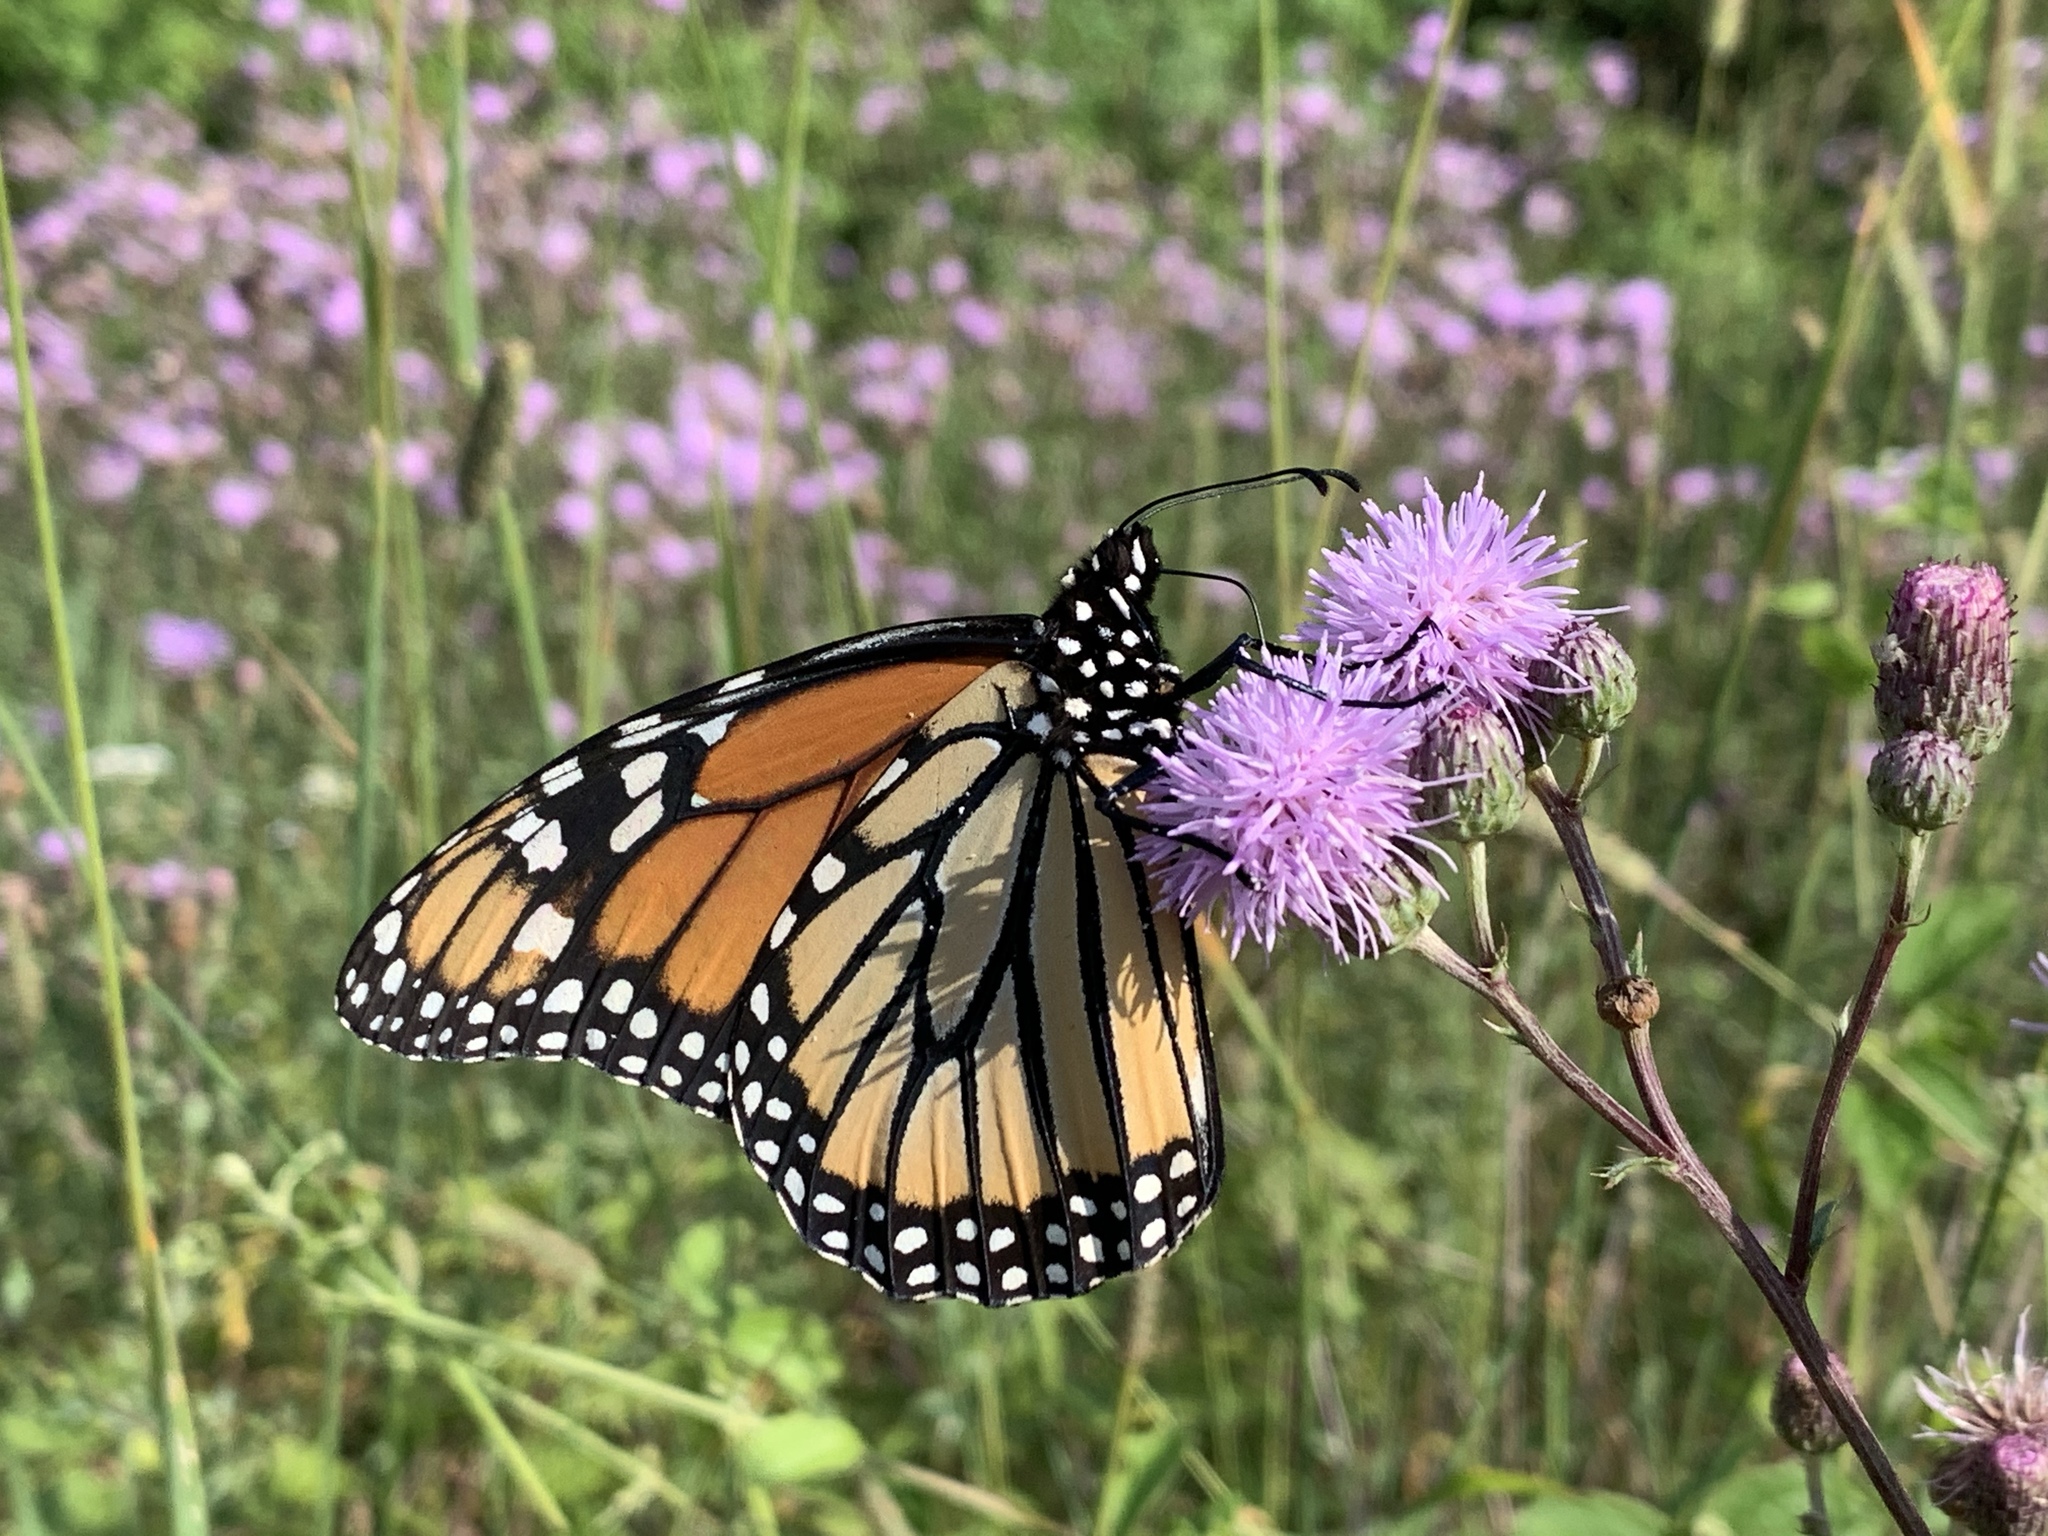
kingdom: Animalia
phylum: Arthropoda
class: Insecta
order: Lepidoptera
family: Nymphalidae
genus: Danaus
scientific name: Danaus plexippus
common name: Monarch
